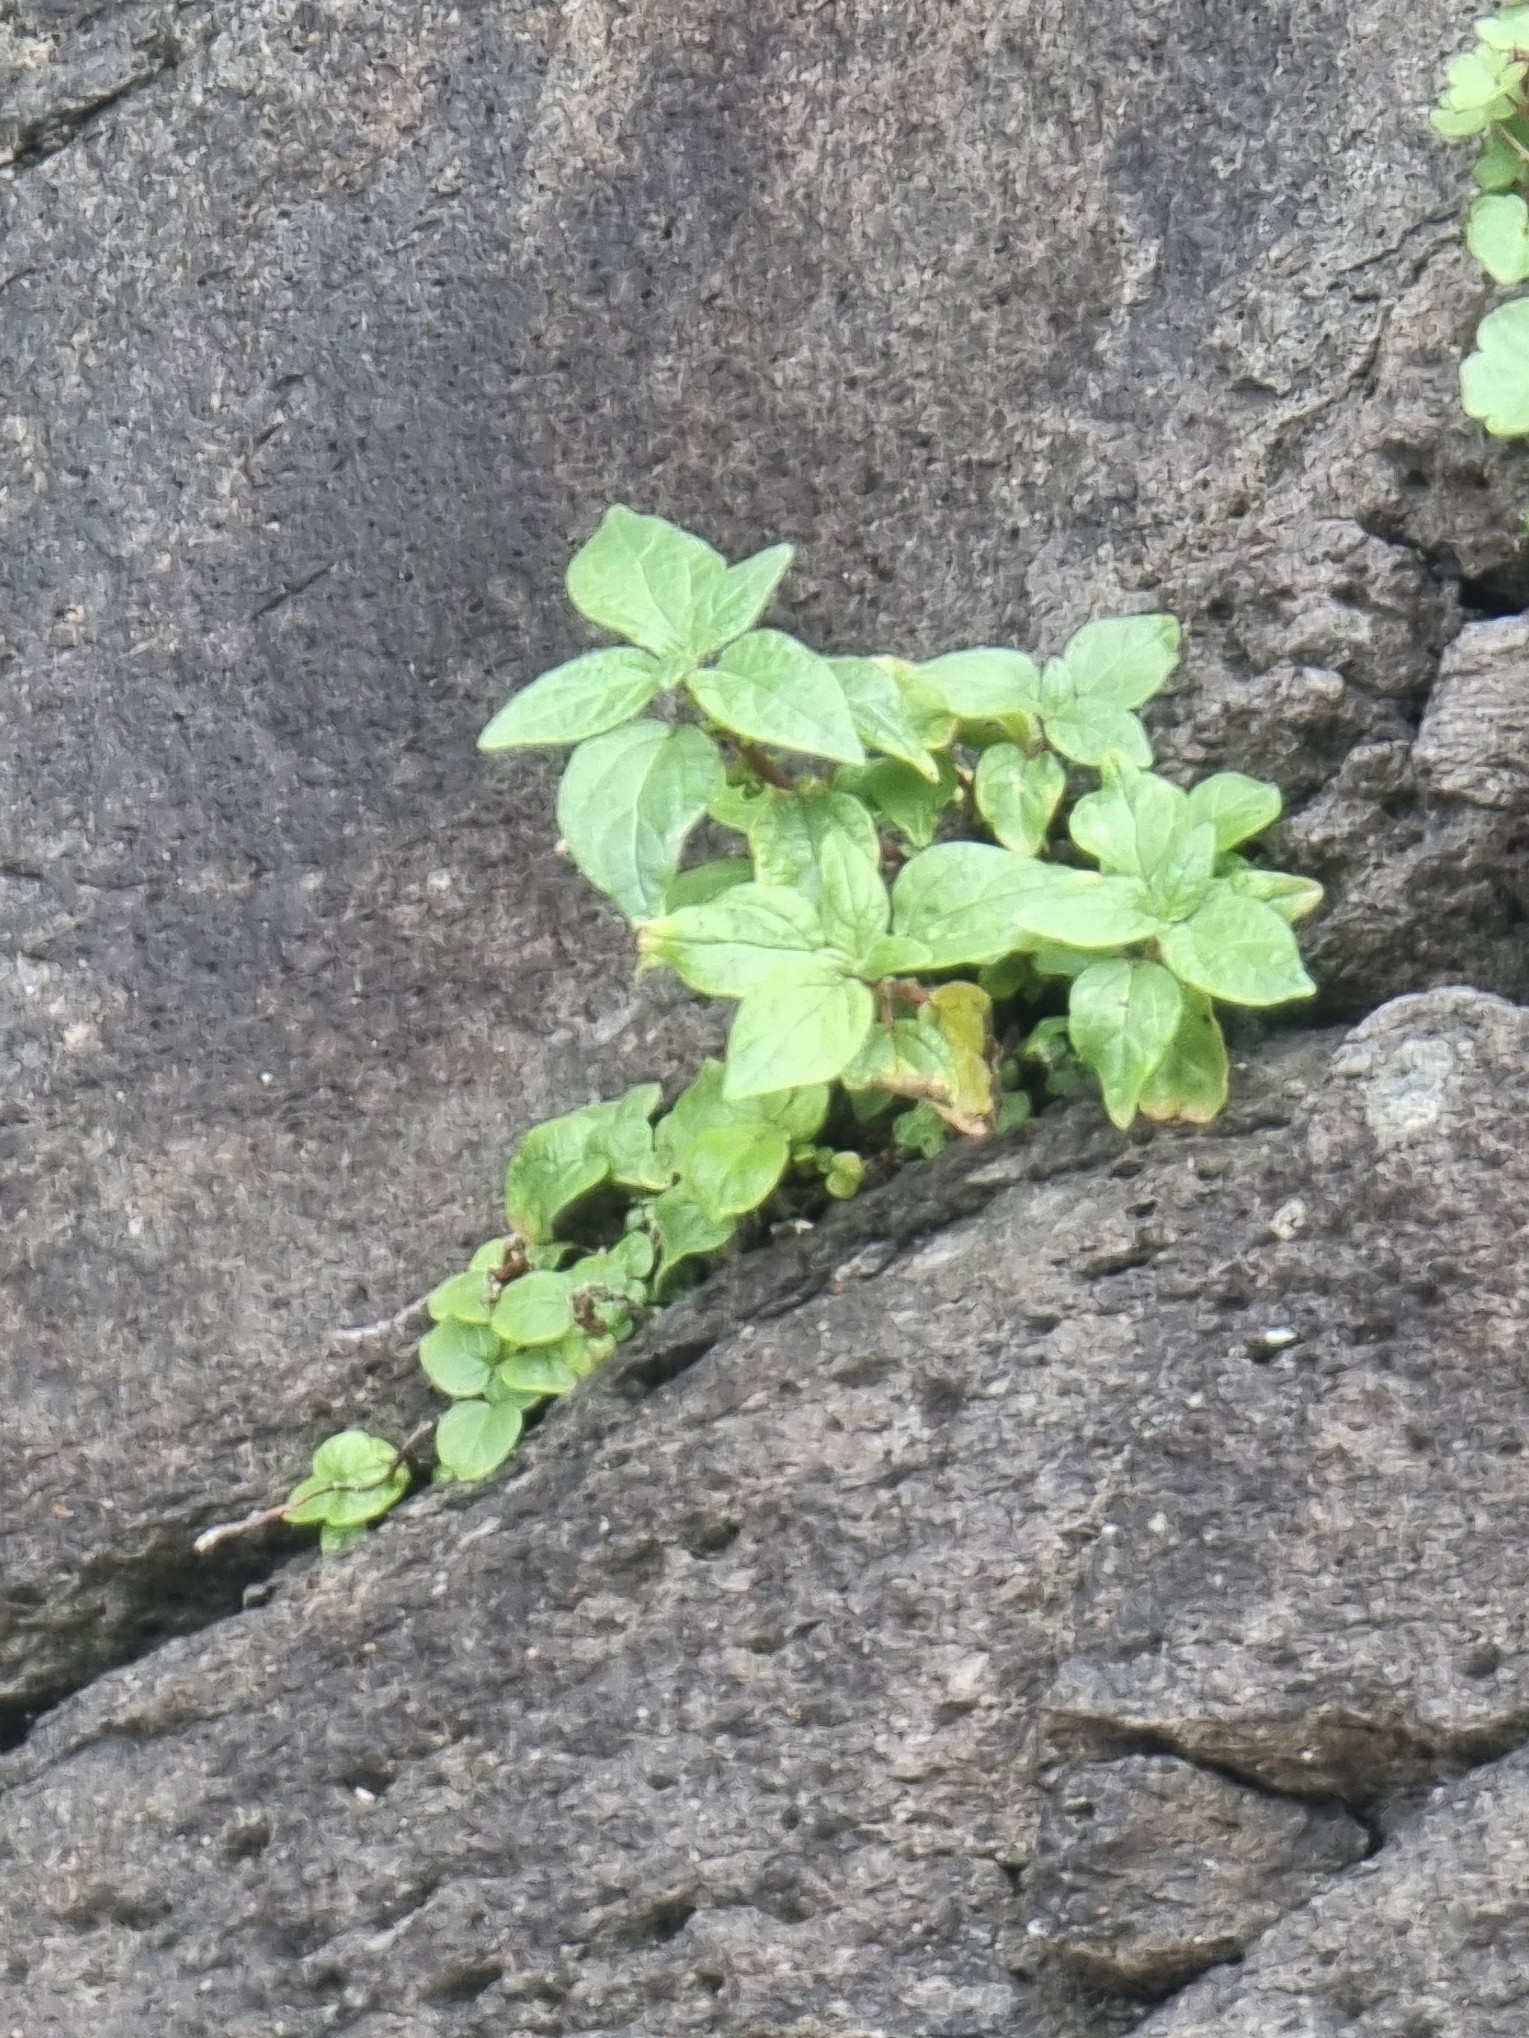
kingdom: Plantae
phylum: Tracheophyta
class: Magnoliopsida
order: Rosales
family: Urticaceae
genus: Parietaria
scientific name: Parietaria judaica
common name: Pellitory-of-the-wall
